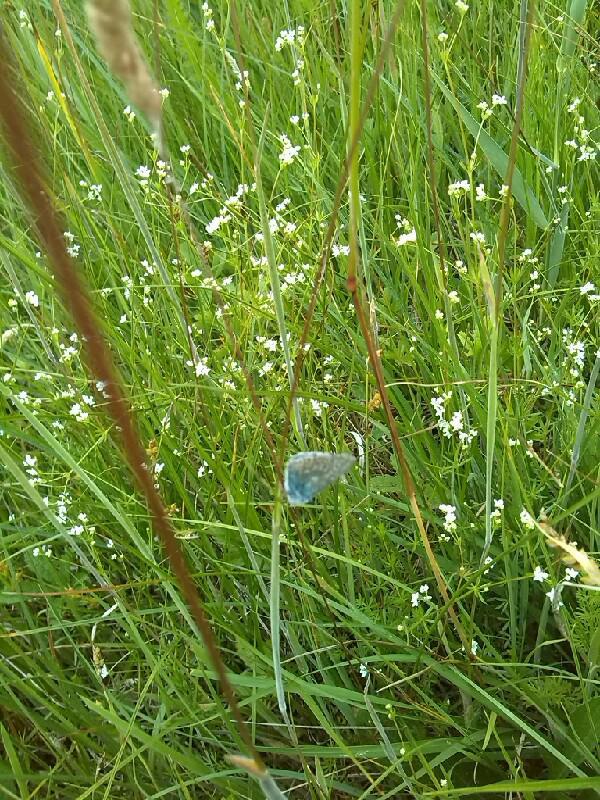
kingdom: Animalia
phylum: Arthropoda
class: Insecta
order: Lepidoptera
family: Lycaenidae
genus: Polyommatus
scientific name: Polyommatus icarus
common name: Common blue
